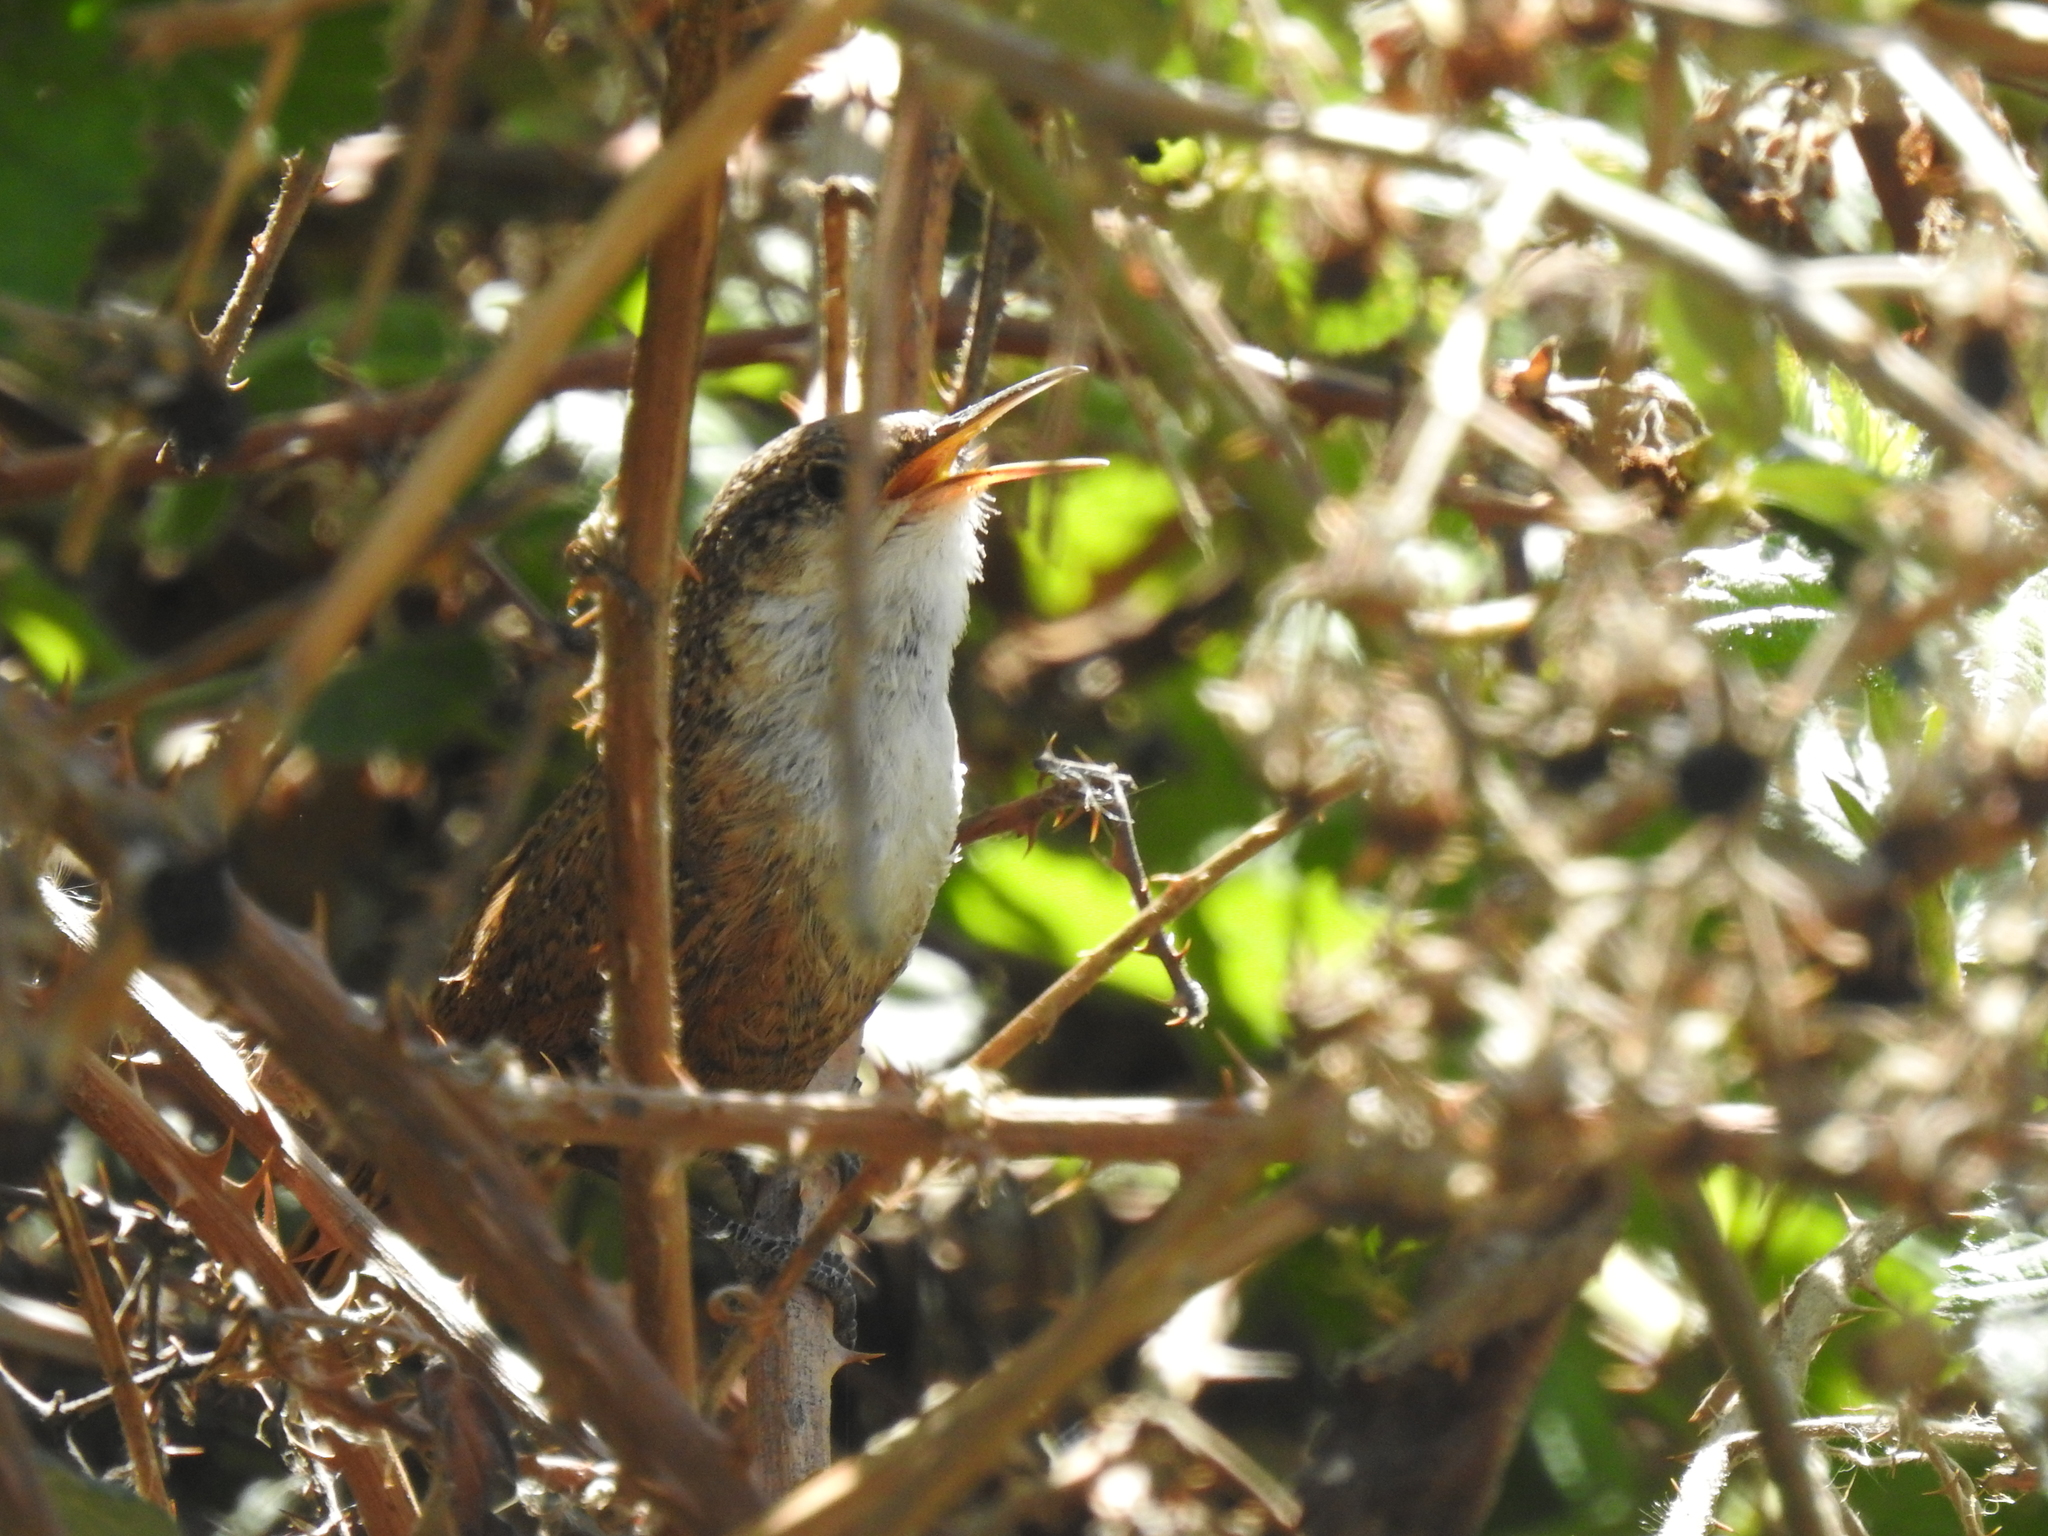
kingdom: Animalia
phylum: Chordata
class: Aves
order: Passeriformes
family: Troglodytidae
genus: Catherpes
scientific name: Catherpes mexicanus
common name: Canyon wren
